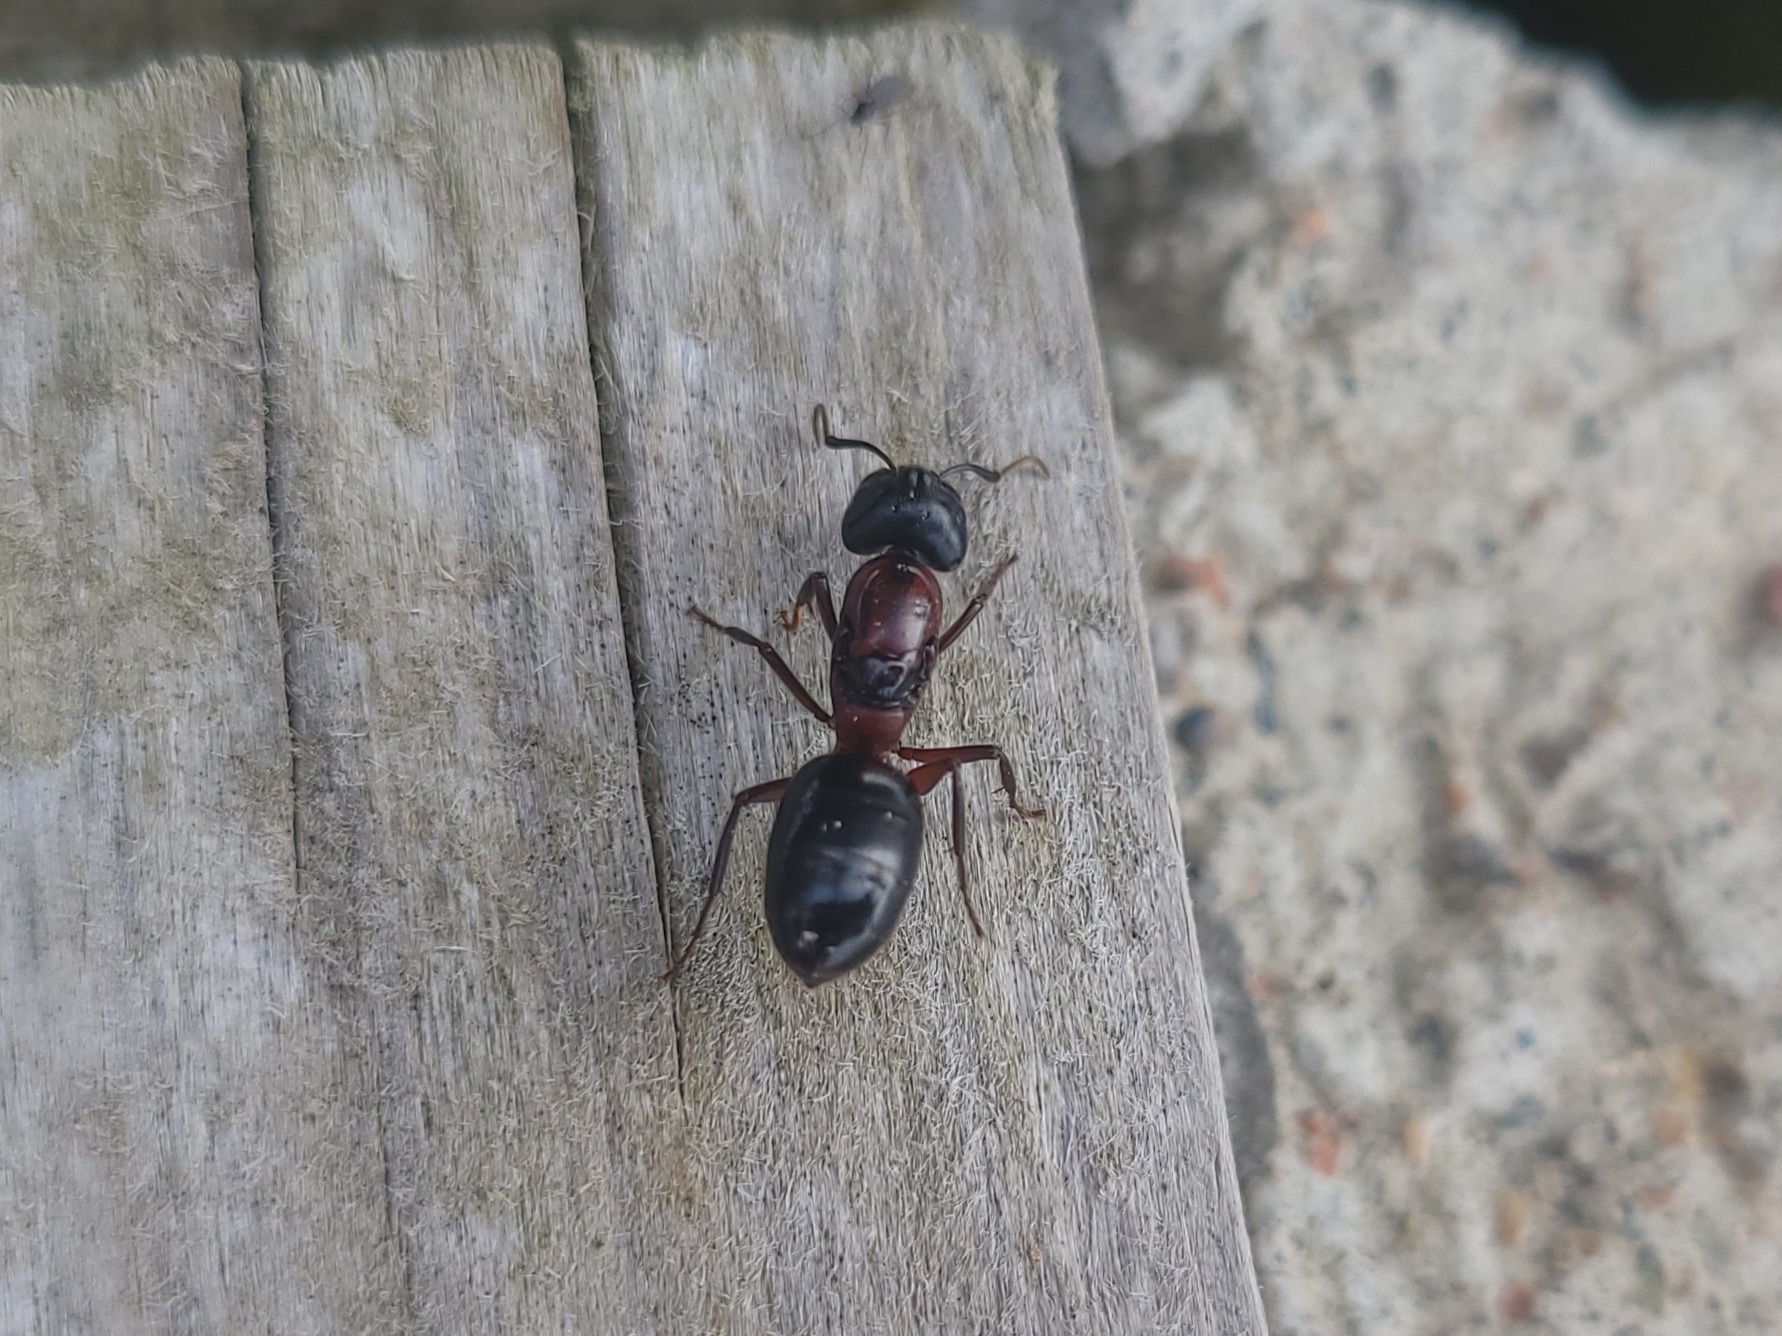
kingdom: Animalia
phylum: Arthropoda
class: Insecta
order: Hymenoptera
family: Formicidae
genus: Camponotus
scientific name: Camponotus novaeboracensis
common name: New york carpenter ant
